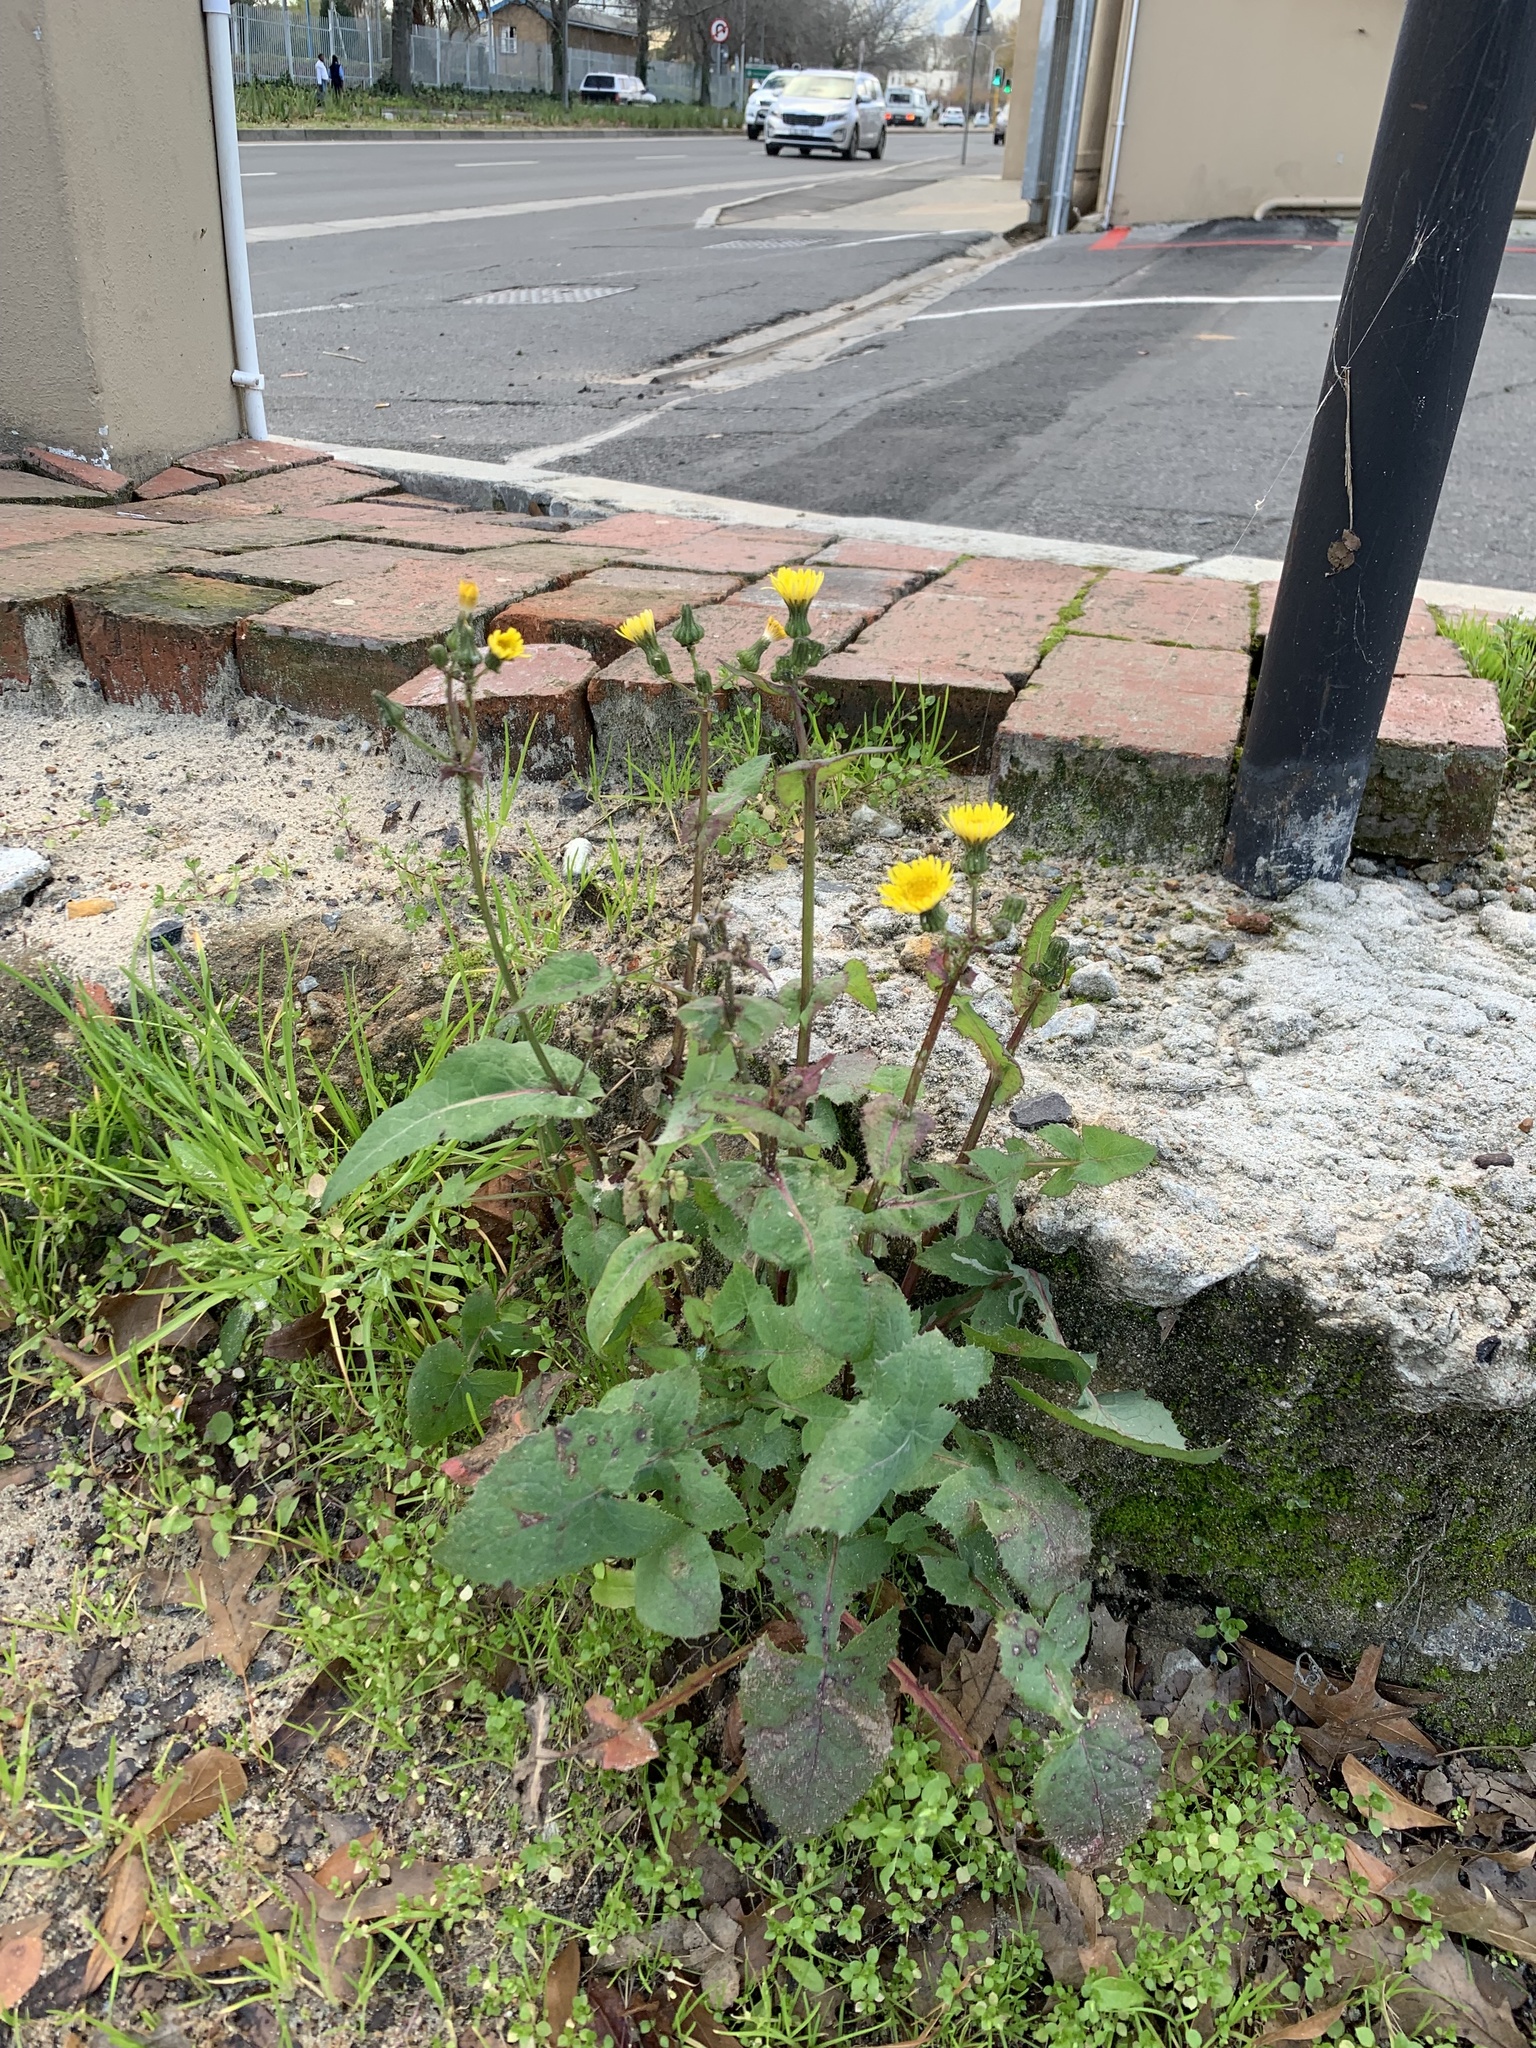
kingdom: Plantae
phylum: Tracheophyta
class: Magnoliopsida
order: Asterales
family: Asteraceae
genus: Sonchus
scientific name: Sonchus oleraceus
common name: Common sowthistle
